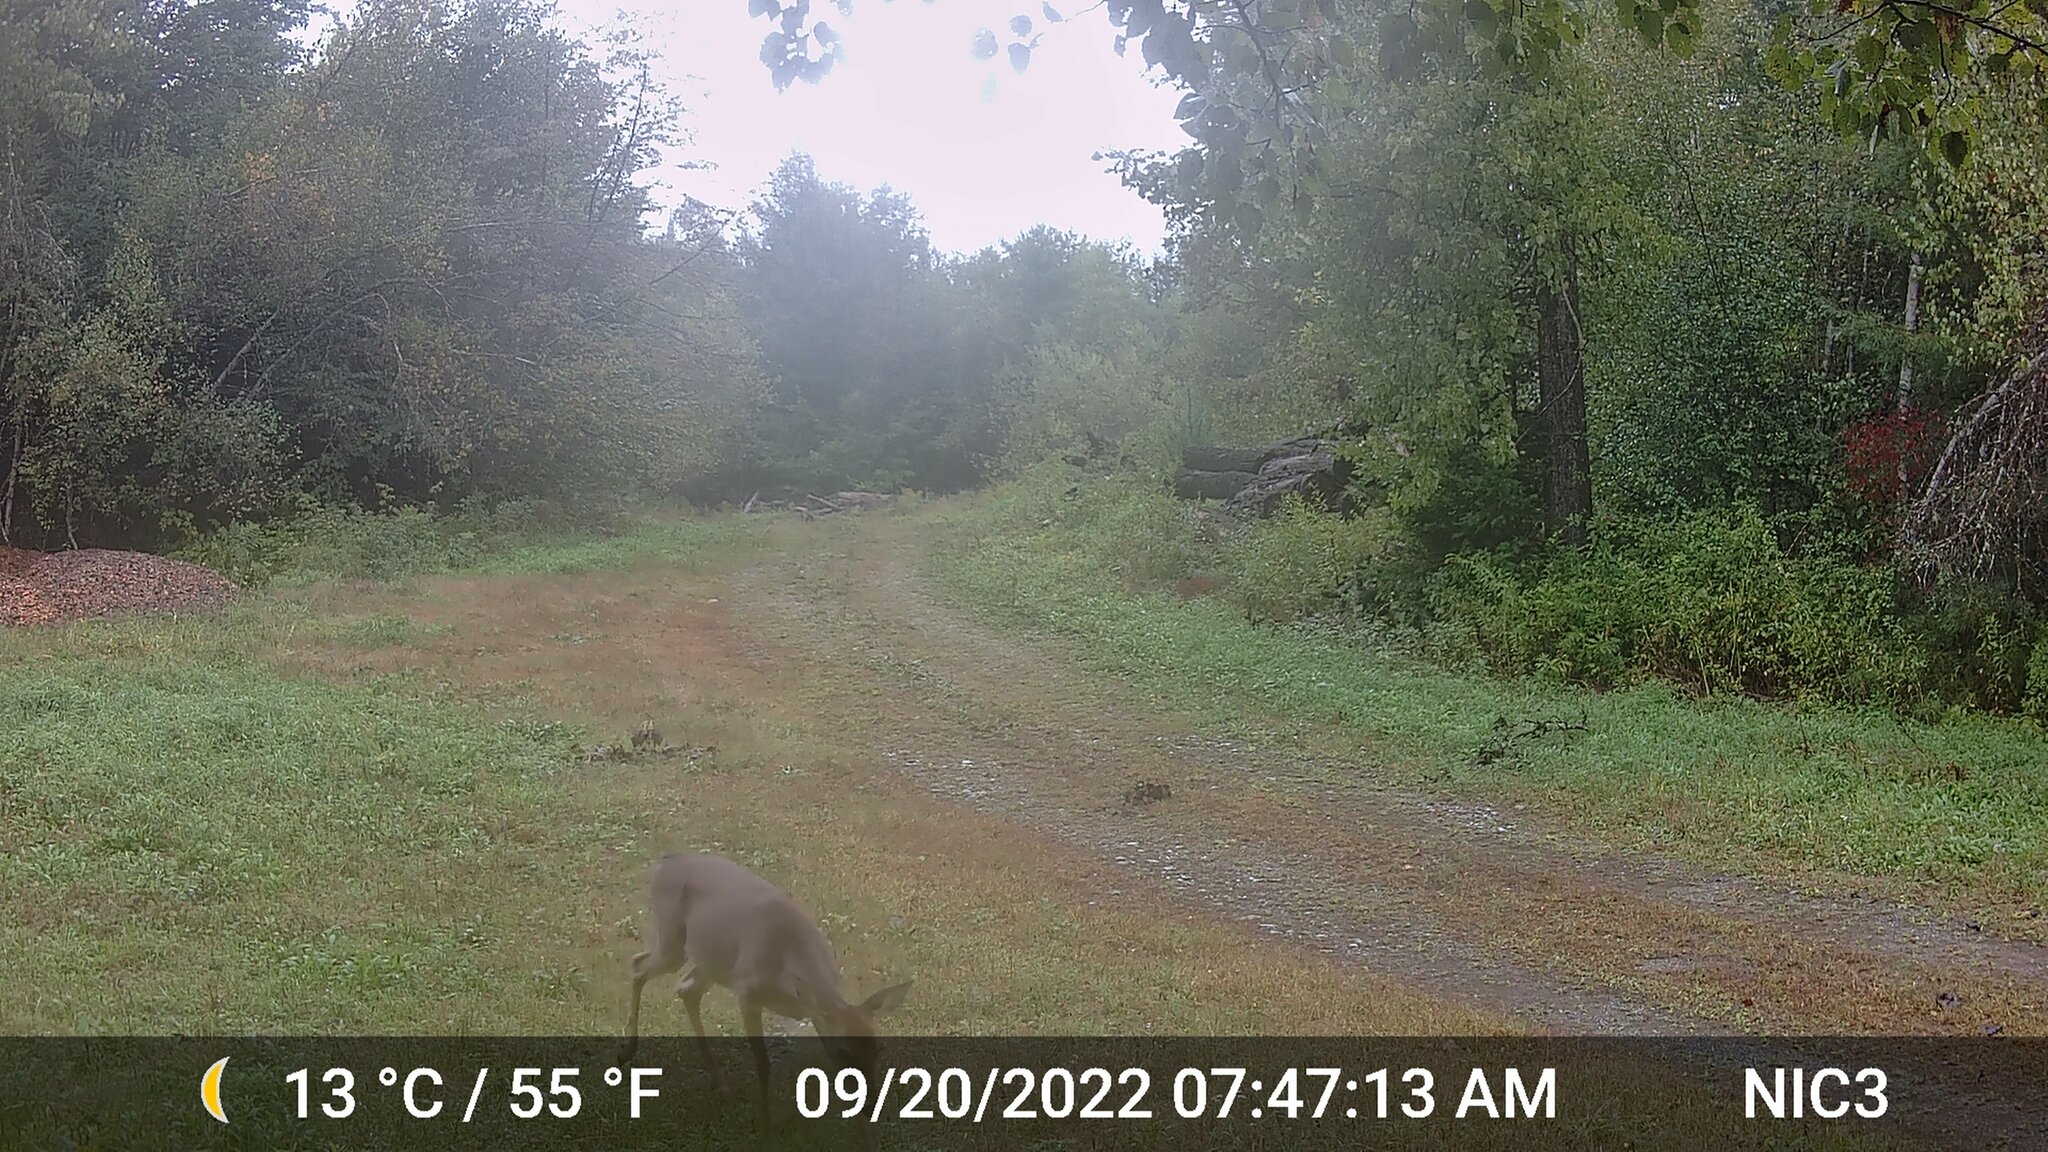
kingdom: Animalia
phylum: Chordata
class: Mammalia
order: Artiodactyla
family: Cervidae
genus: Odocoileus
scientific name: Odocoileus virginianus
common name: White-tailed deer
